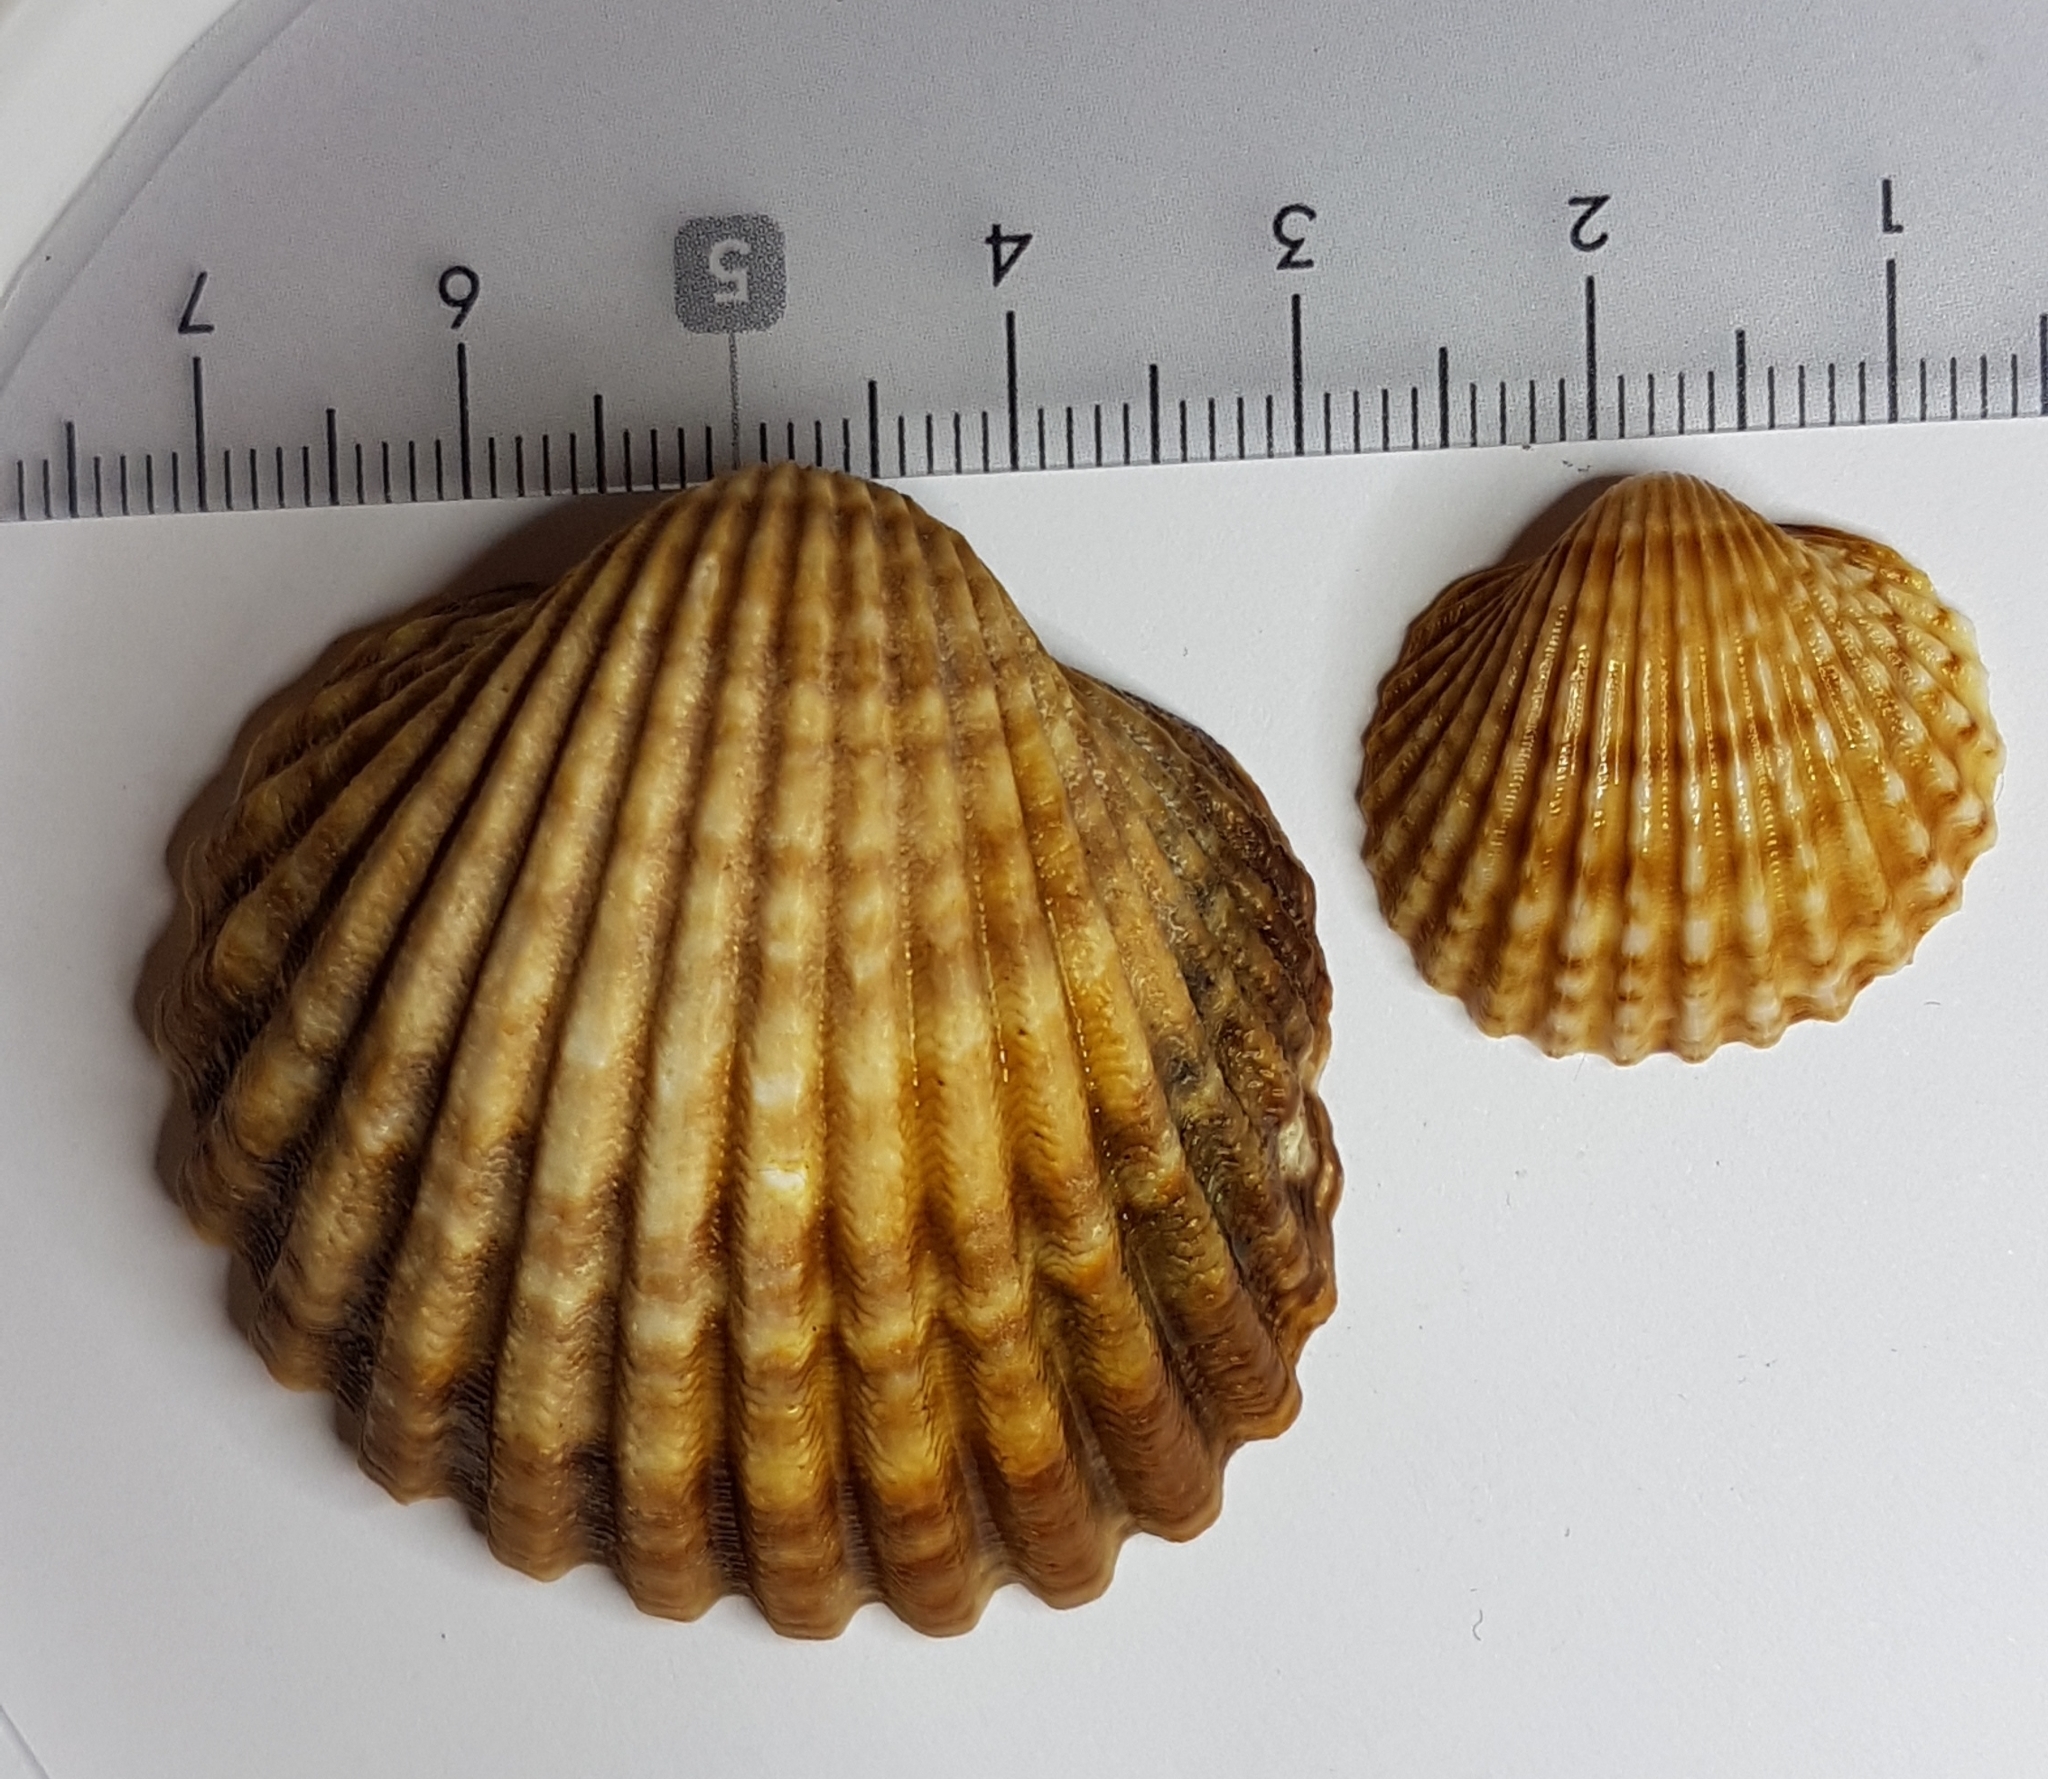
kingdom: Animalia
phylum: Mollusca
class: Bivalvia
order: Cardiida
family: Cardiidae
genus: Acanthocardia
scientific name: Acanthocardia tuberculata
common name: Rough cockle
